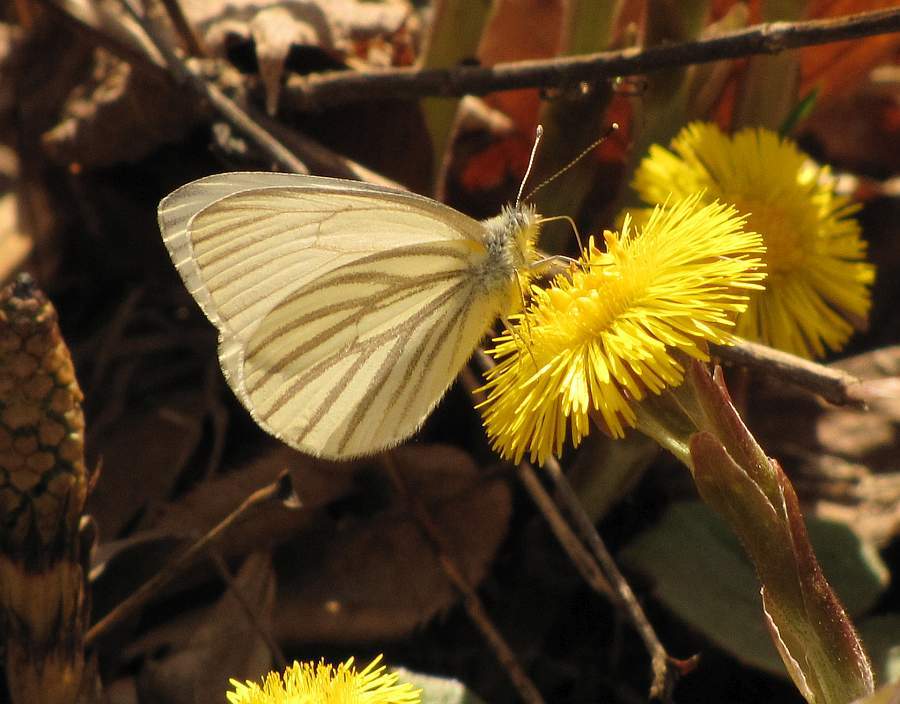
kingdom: Animalia
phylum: Arthropoda
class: Insecta
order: Lepidoptera
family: Pieridae
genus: Pieris
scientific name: Pieris oleracea
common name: Mustard white
